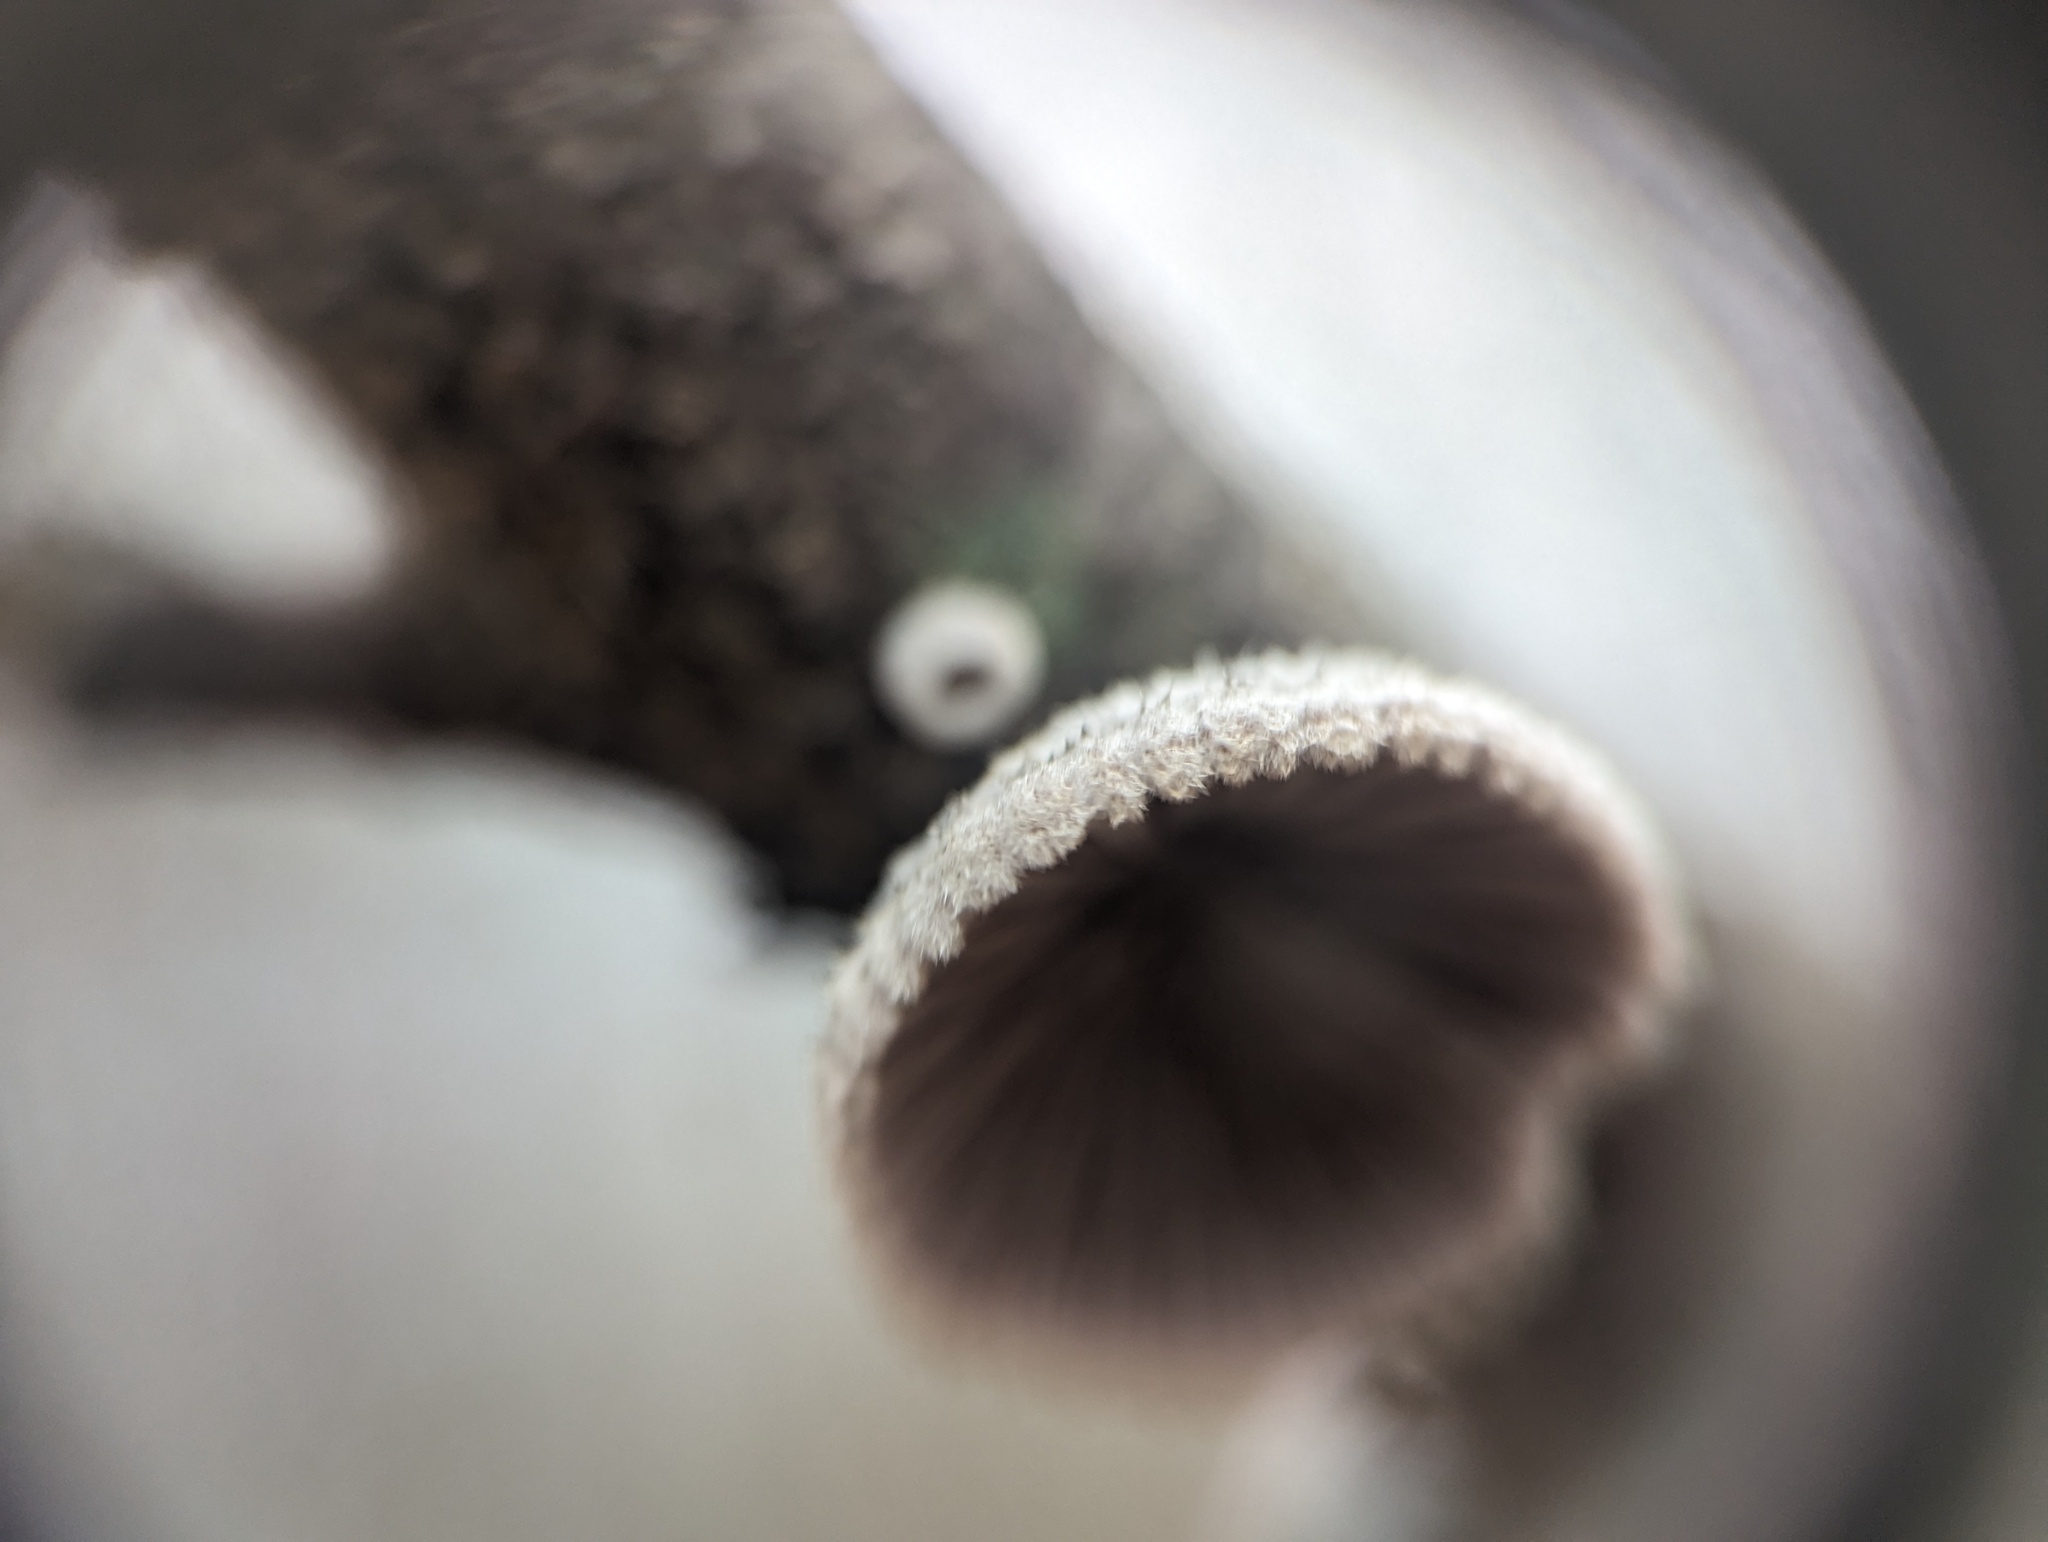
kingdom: Fungi
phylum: Basidiomycota
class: Agaricomycetes
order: Agaricales
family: Schizophyllaceae
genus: Schizophyllum
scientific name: Schizophyllum commune
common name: Common porecrust
